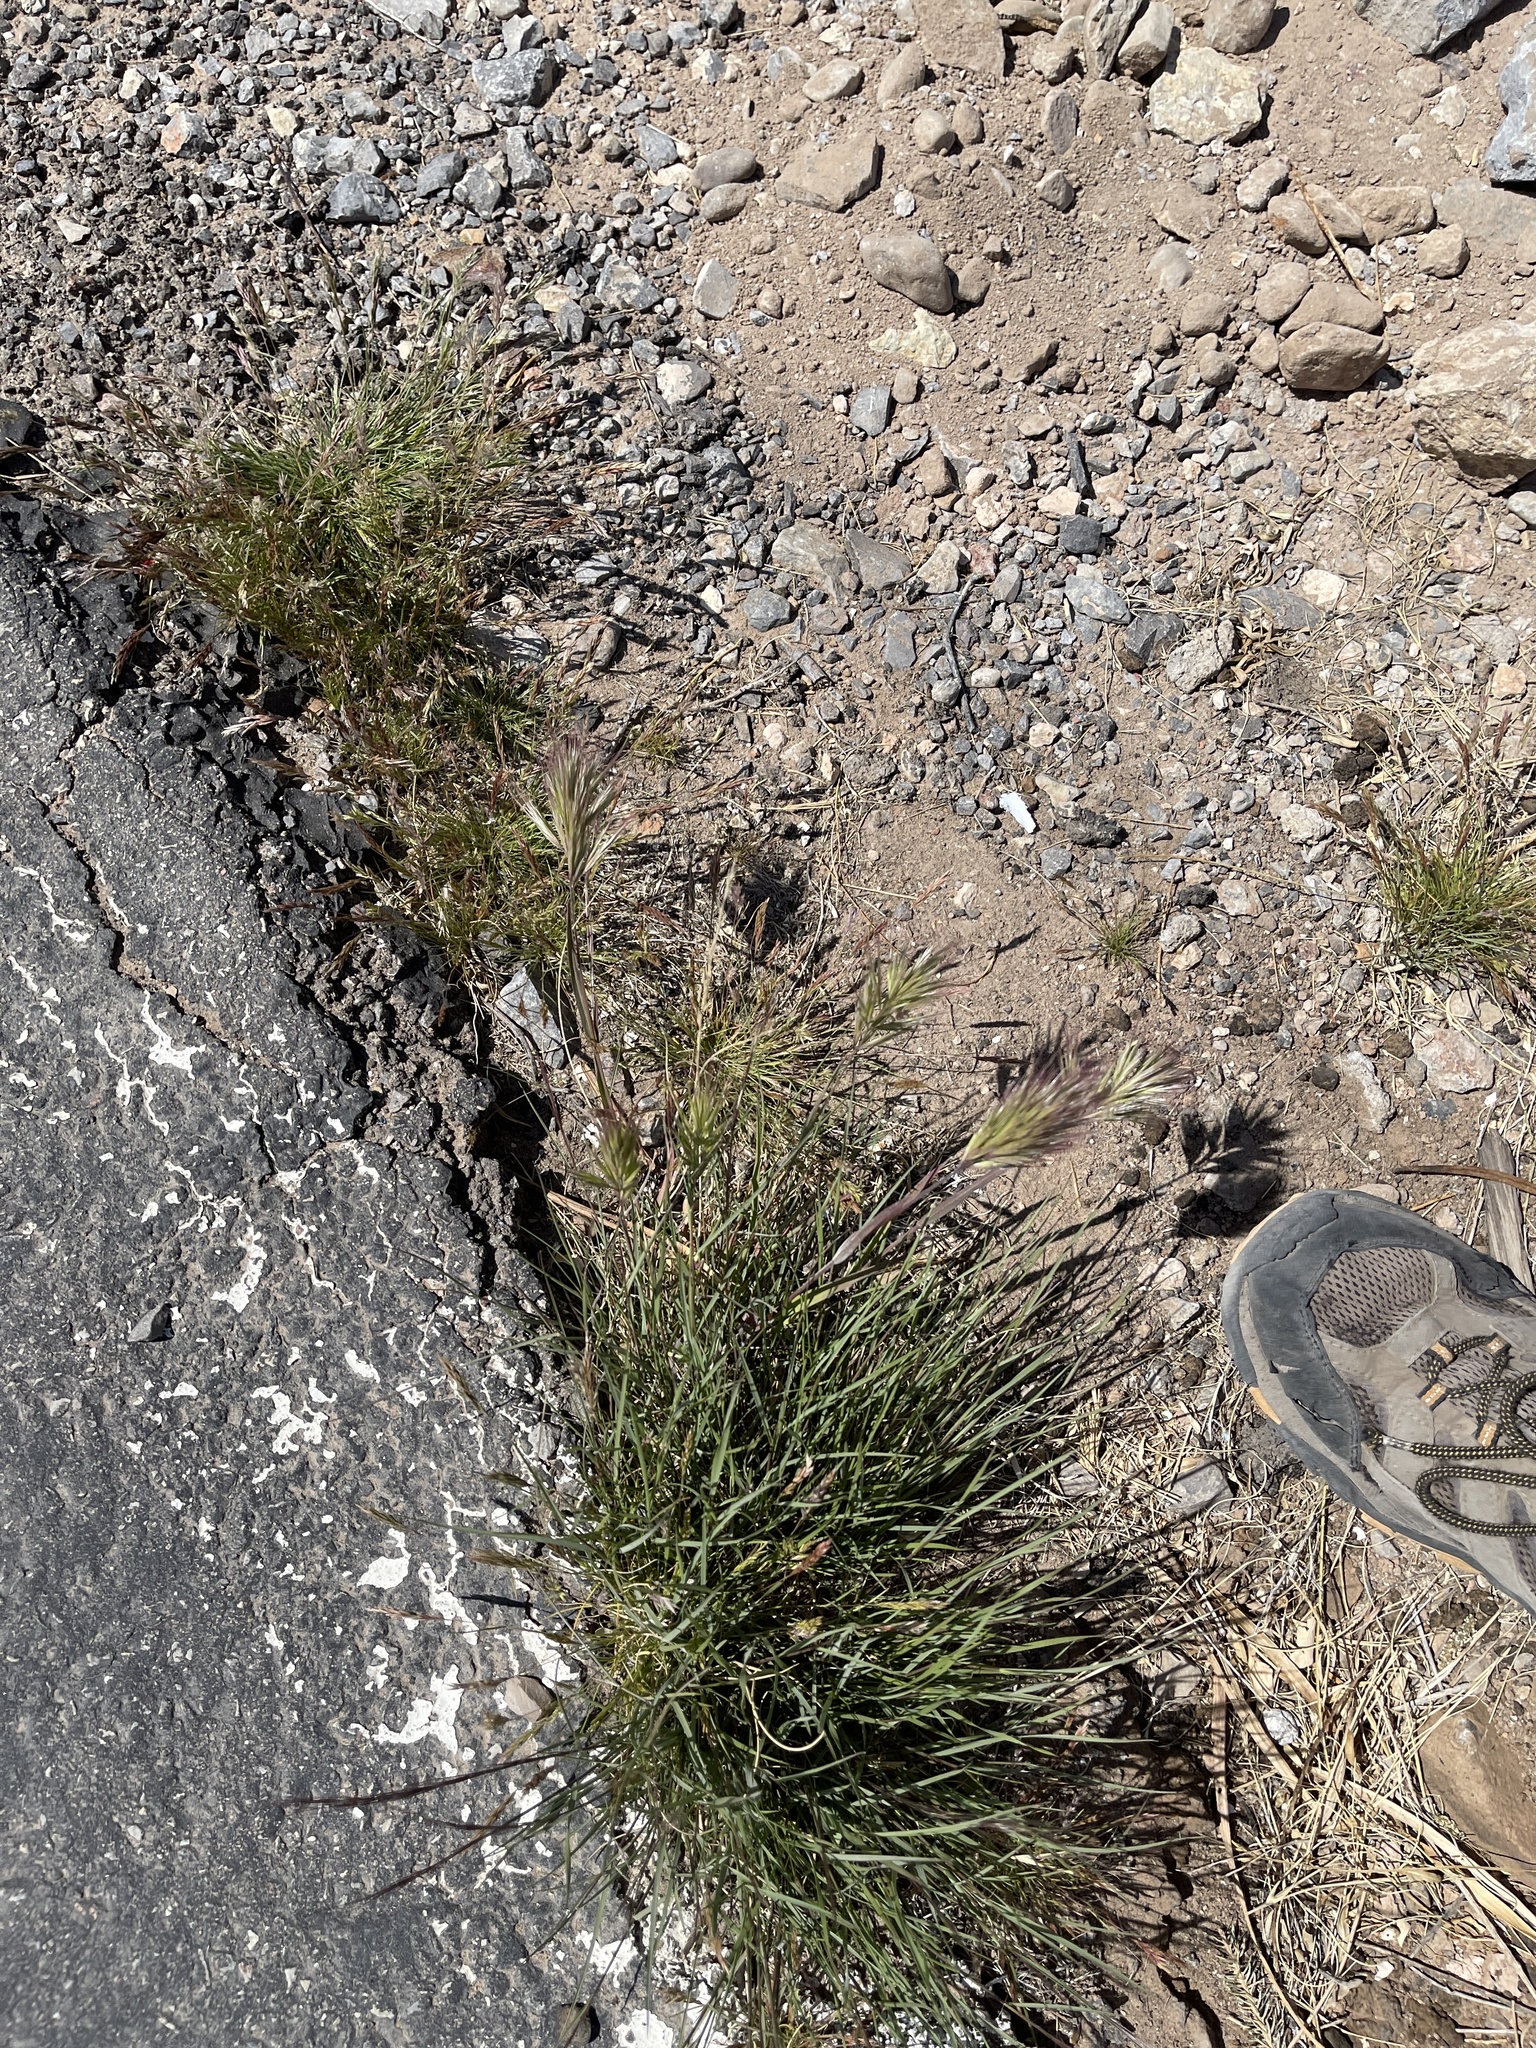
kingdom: Plantae
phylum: Tracheophyta
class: Liliopsida
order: Poales
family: Poaceae
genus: Bromus
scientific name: Bromus rubens
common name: Red brome
